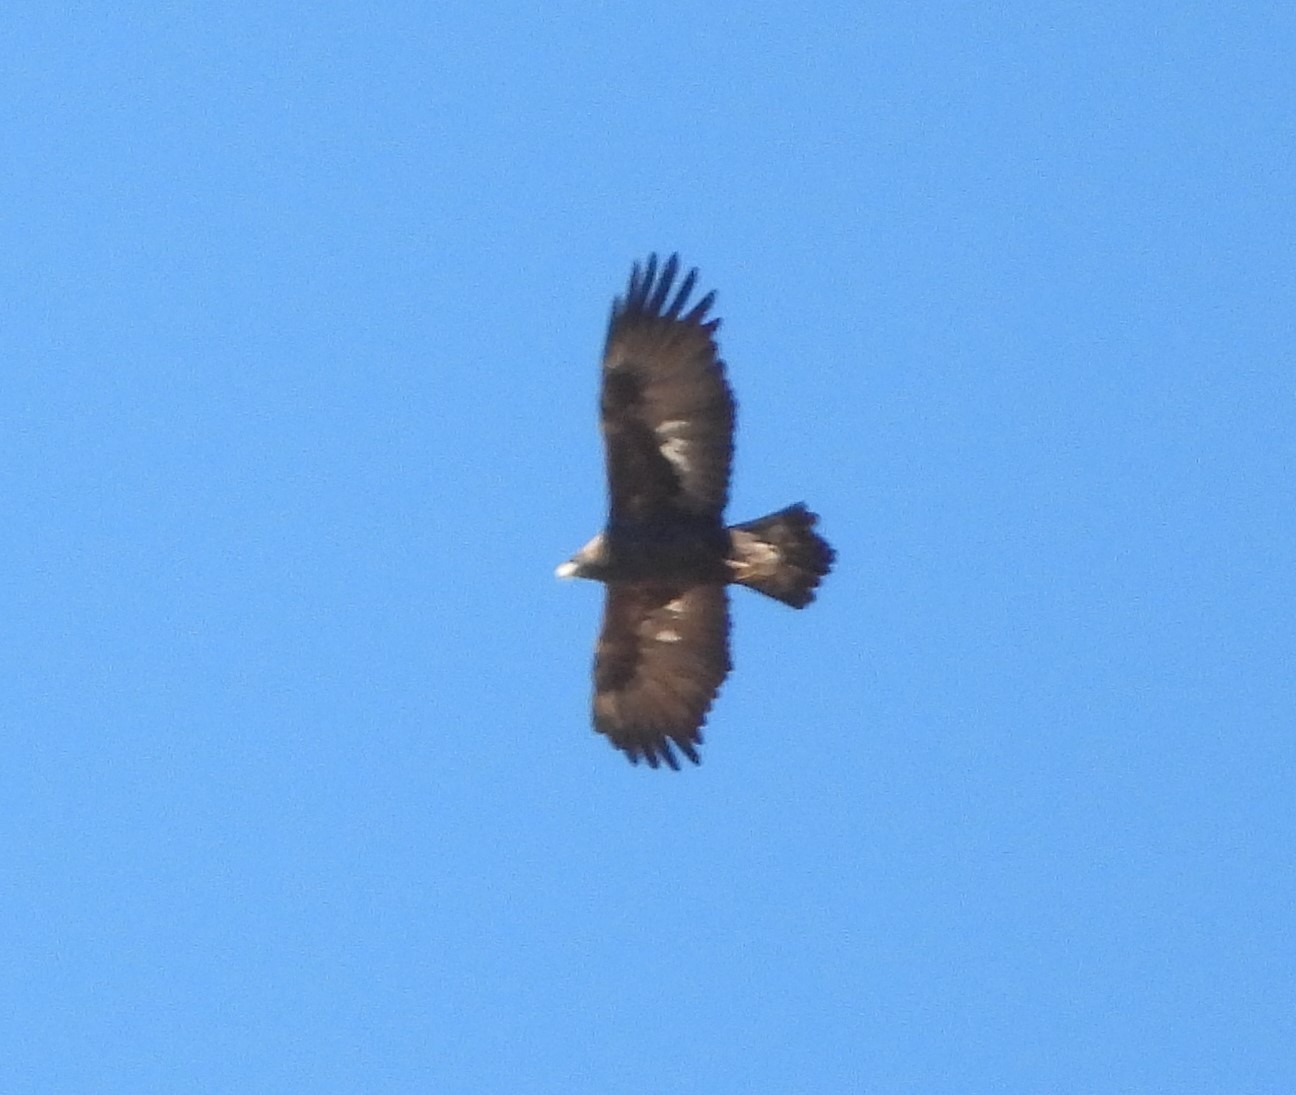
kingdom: Animalia
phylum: Chordata
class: Aves
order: Accipitriformes
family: Accipitridae
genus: Aquila
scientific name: Aquila chrysaetos
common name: Golden eagle
